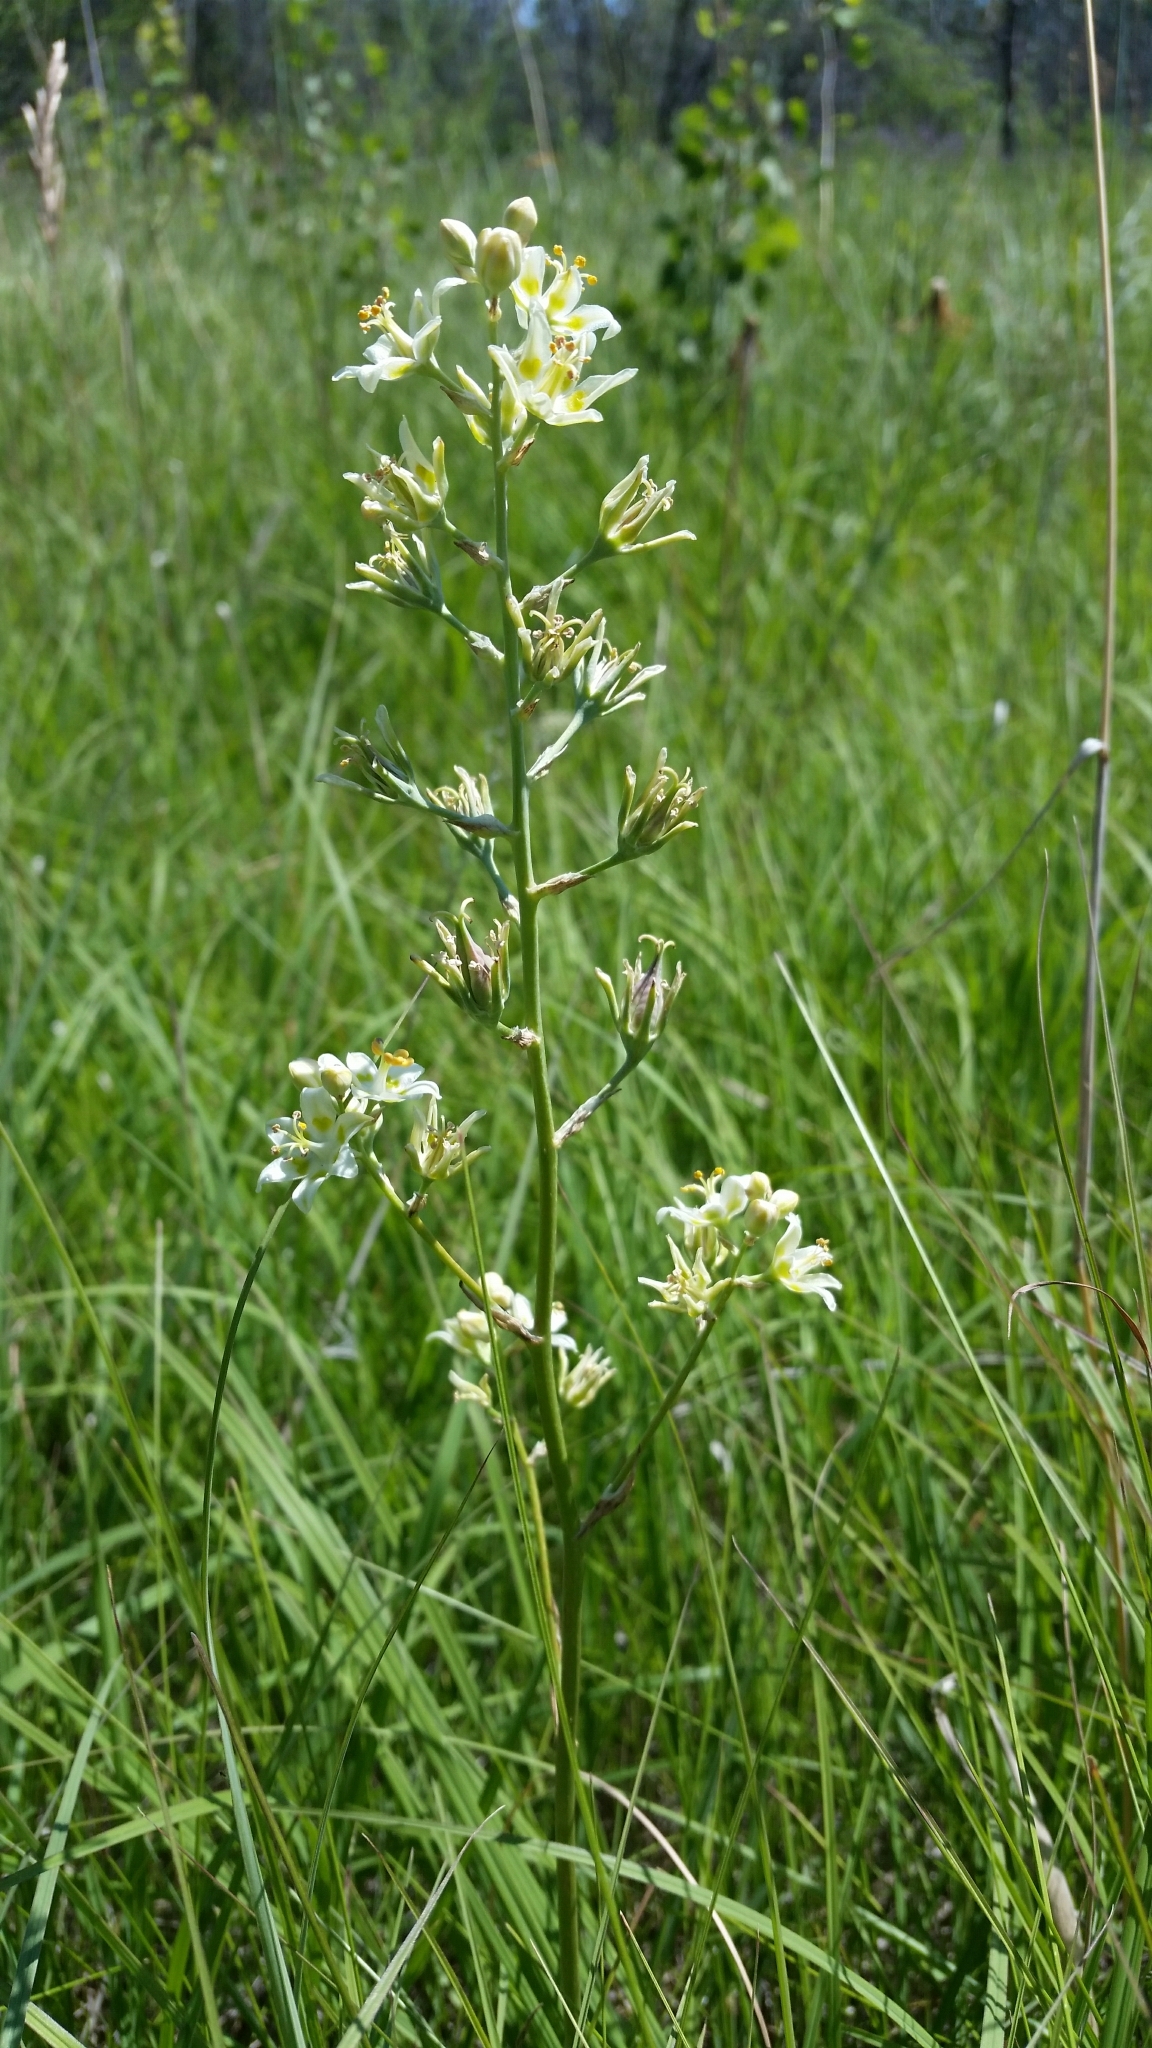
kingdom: Plantae
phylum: Tracheophyta
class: Liliopsida
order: Liliales
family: Melanthiaceae
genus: Anticlea
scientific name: Anticlea elegans
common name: Mountain death camas
